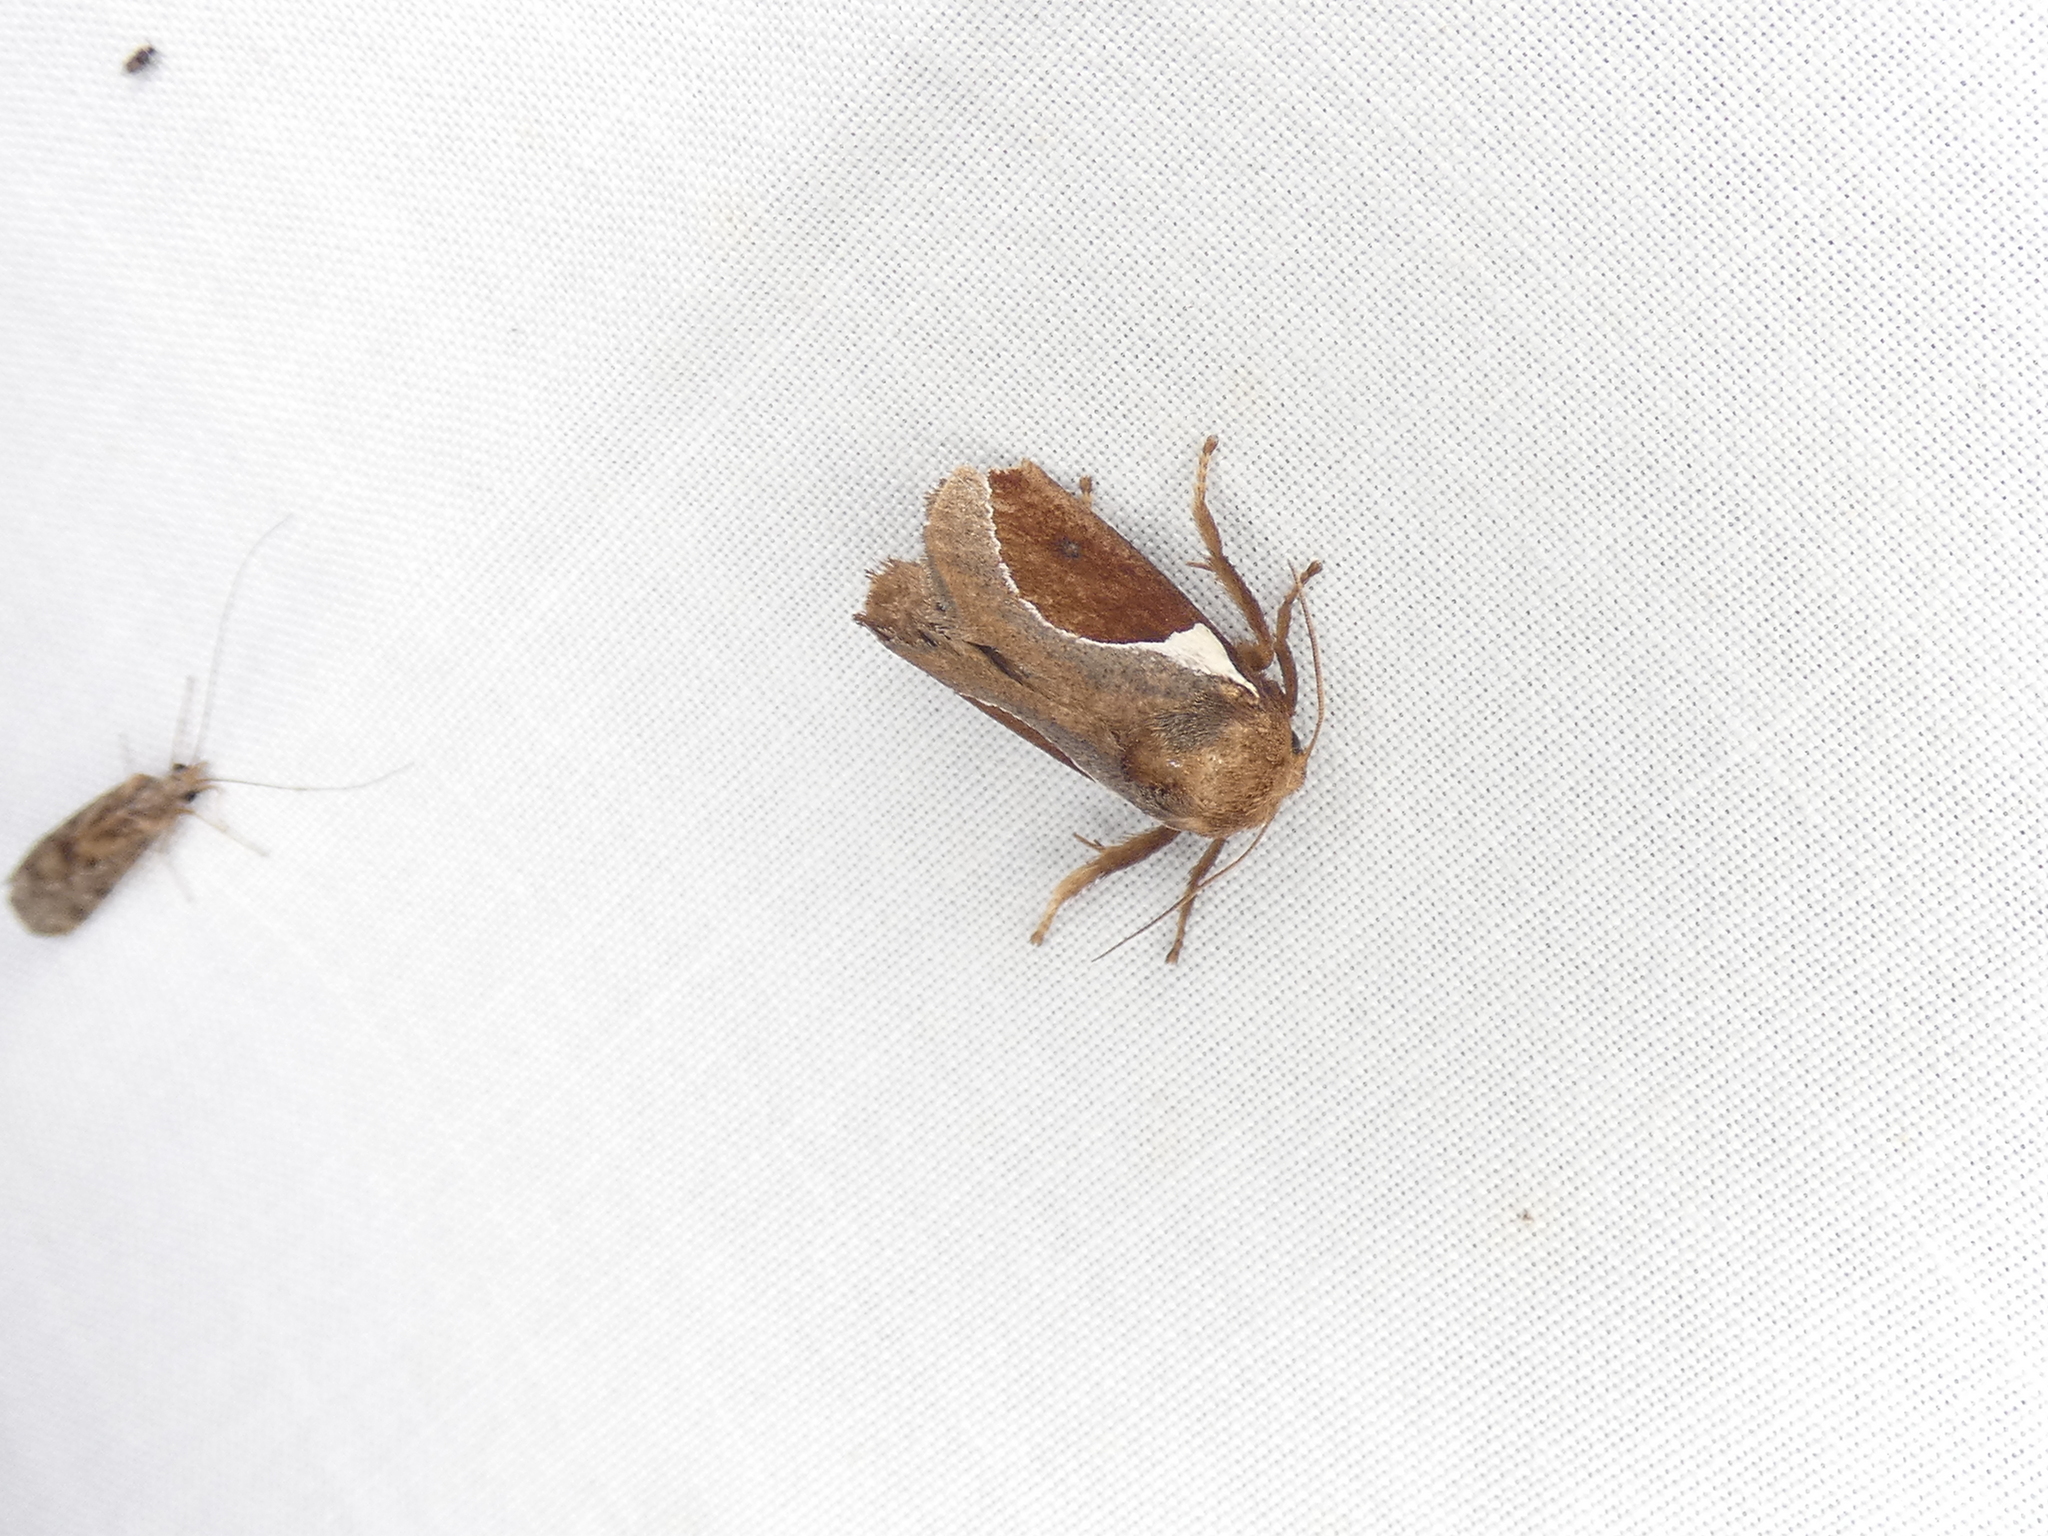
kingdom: Animalia
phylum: Arthropoda
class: Insecta
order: Lepidoptera
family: Limacodidae
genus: Prolimacodes
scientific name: Prolimacodes badia
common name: Skiff moth
